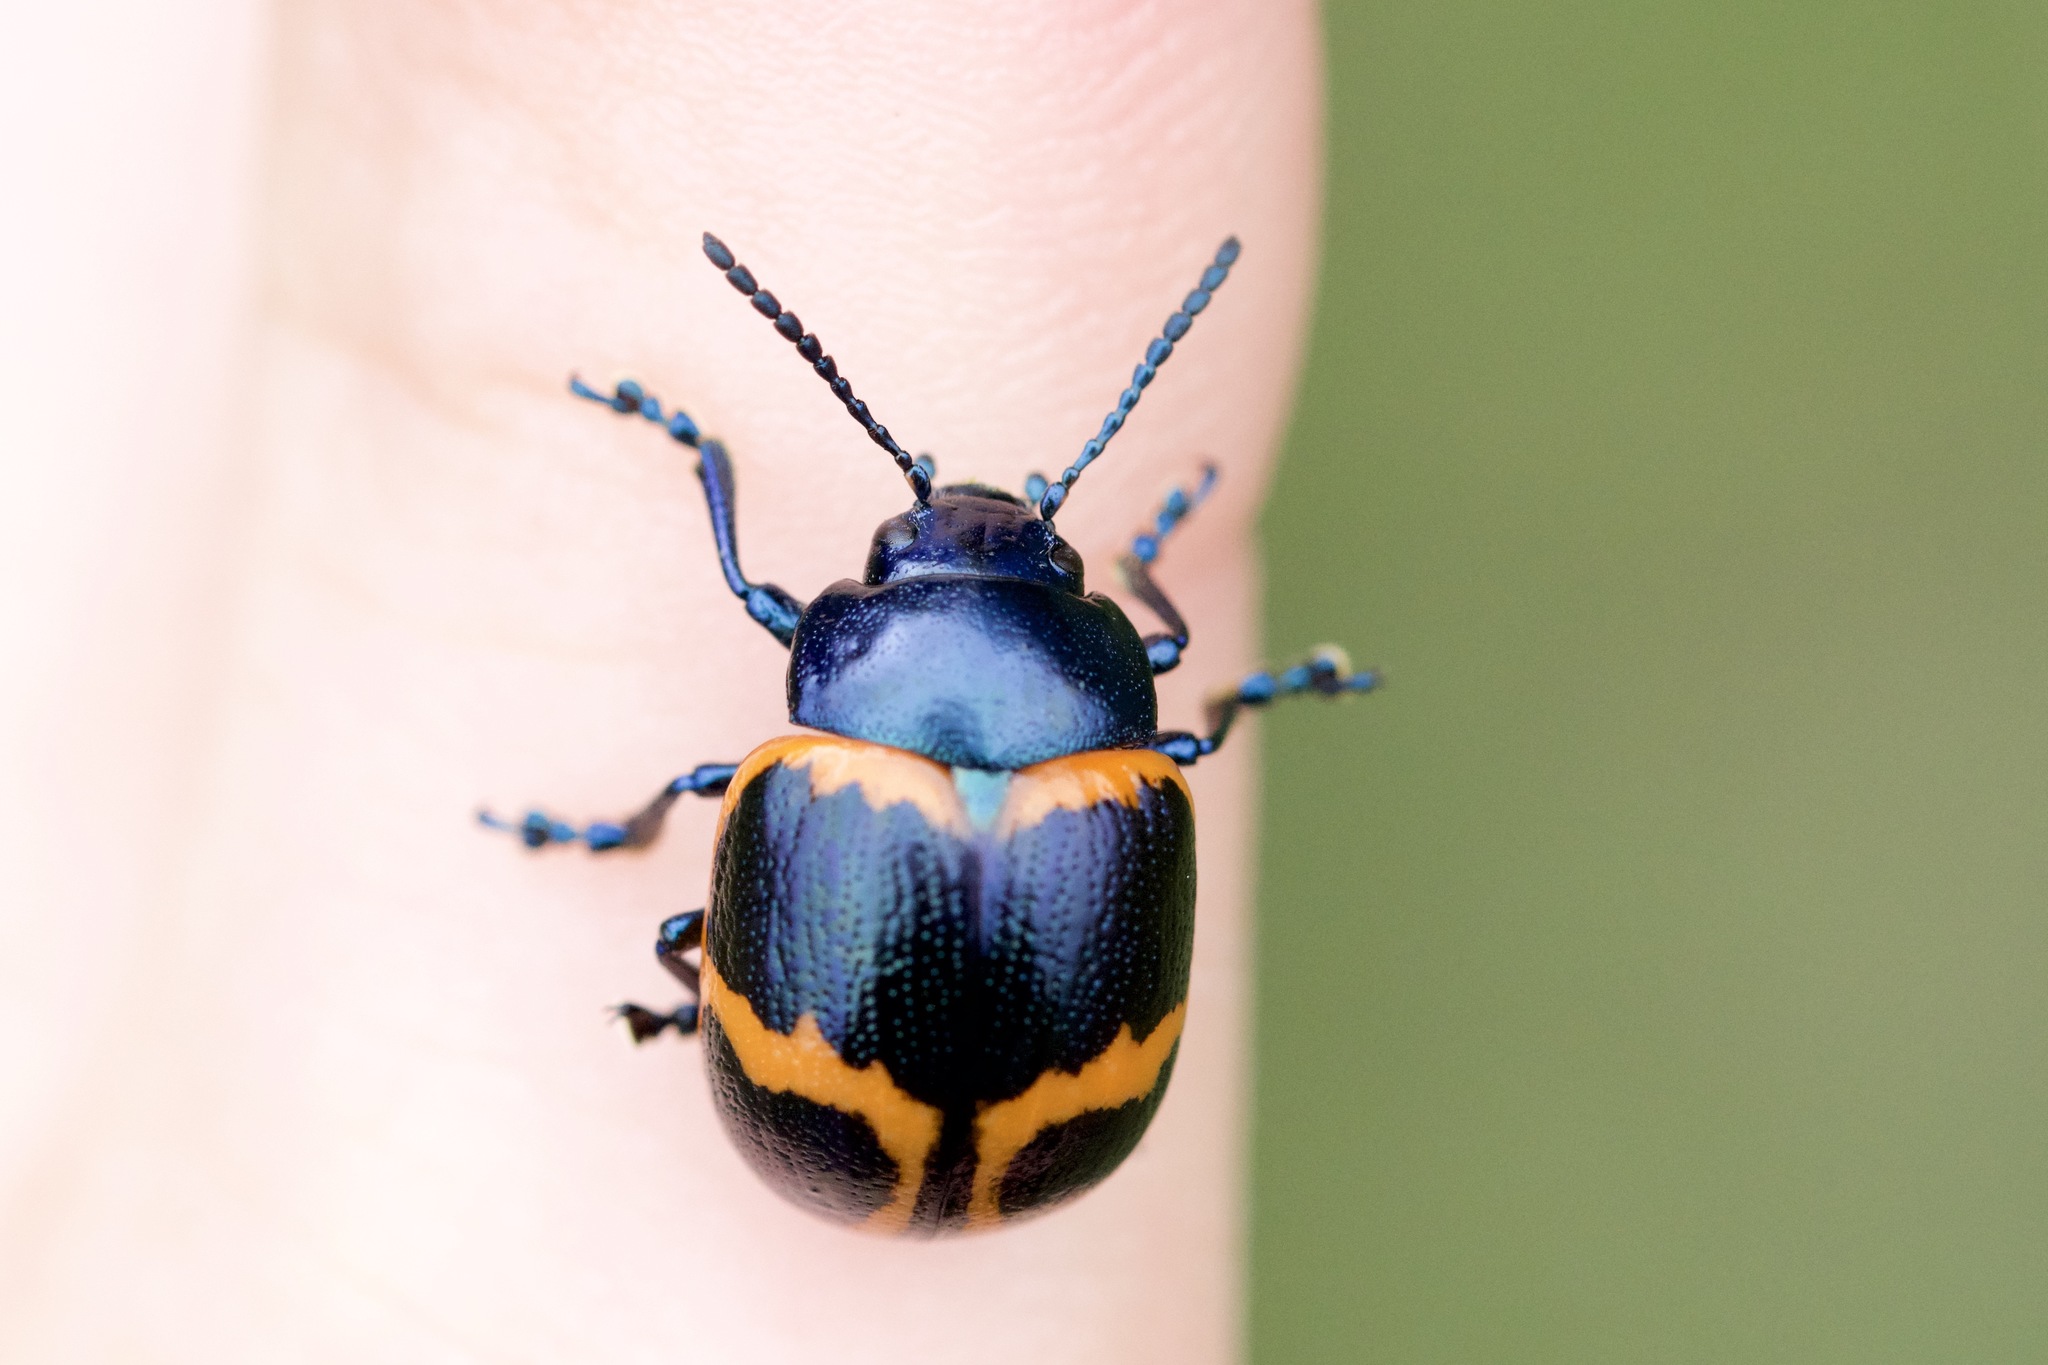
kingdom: Animalia
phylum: Arthropoda
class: Insecta
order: Coleoptera
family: Chrysomelidae
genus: Labidomera
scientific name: Labidomera clivicollis
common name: Swamp milkweed leaf beetle
